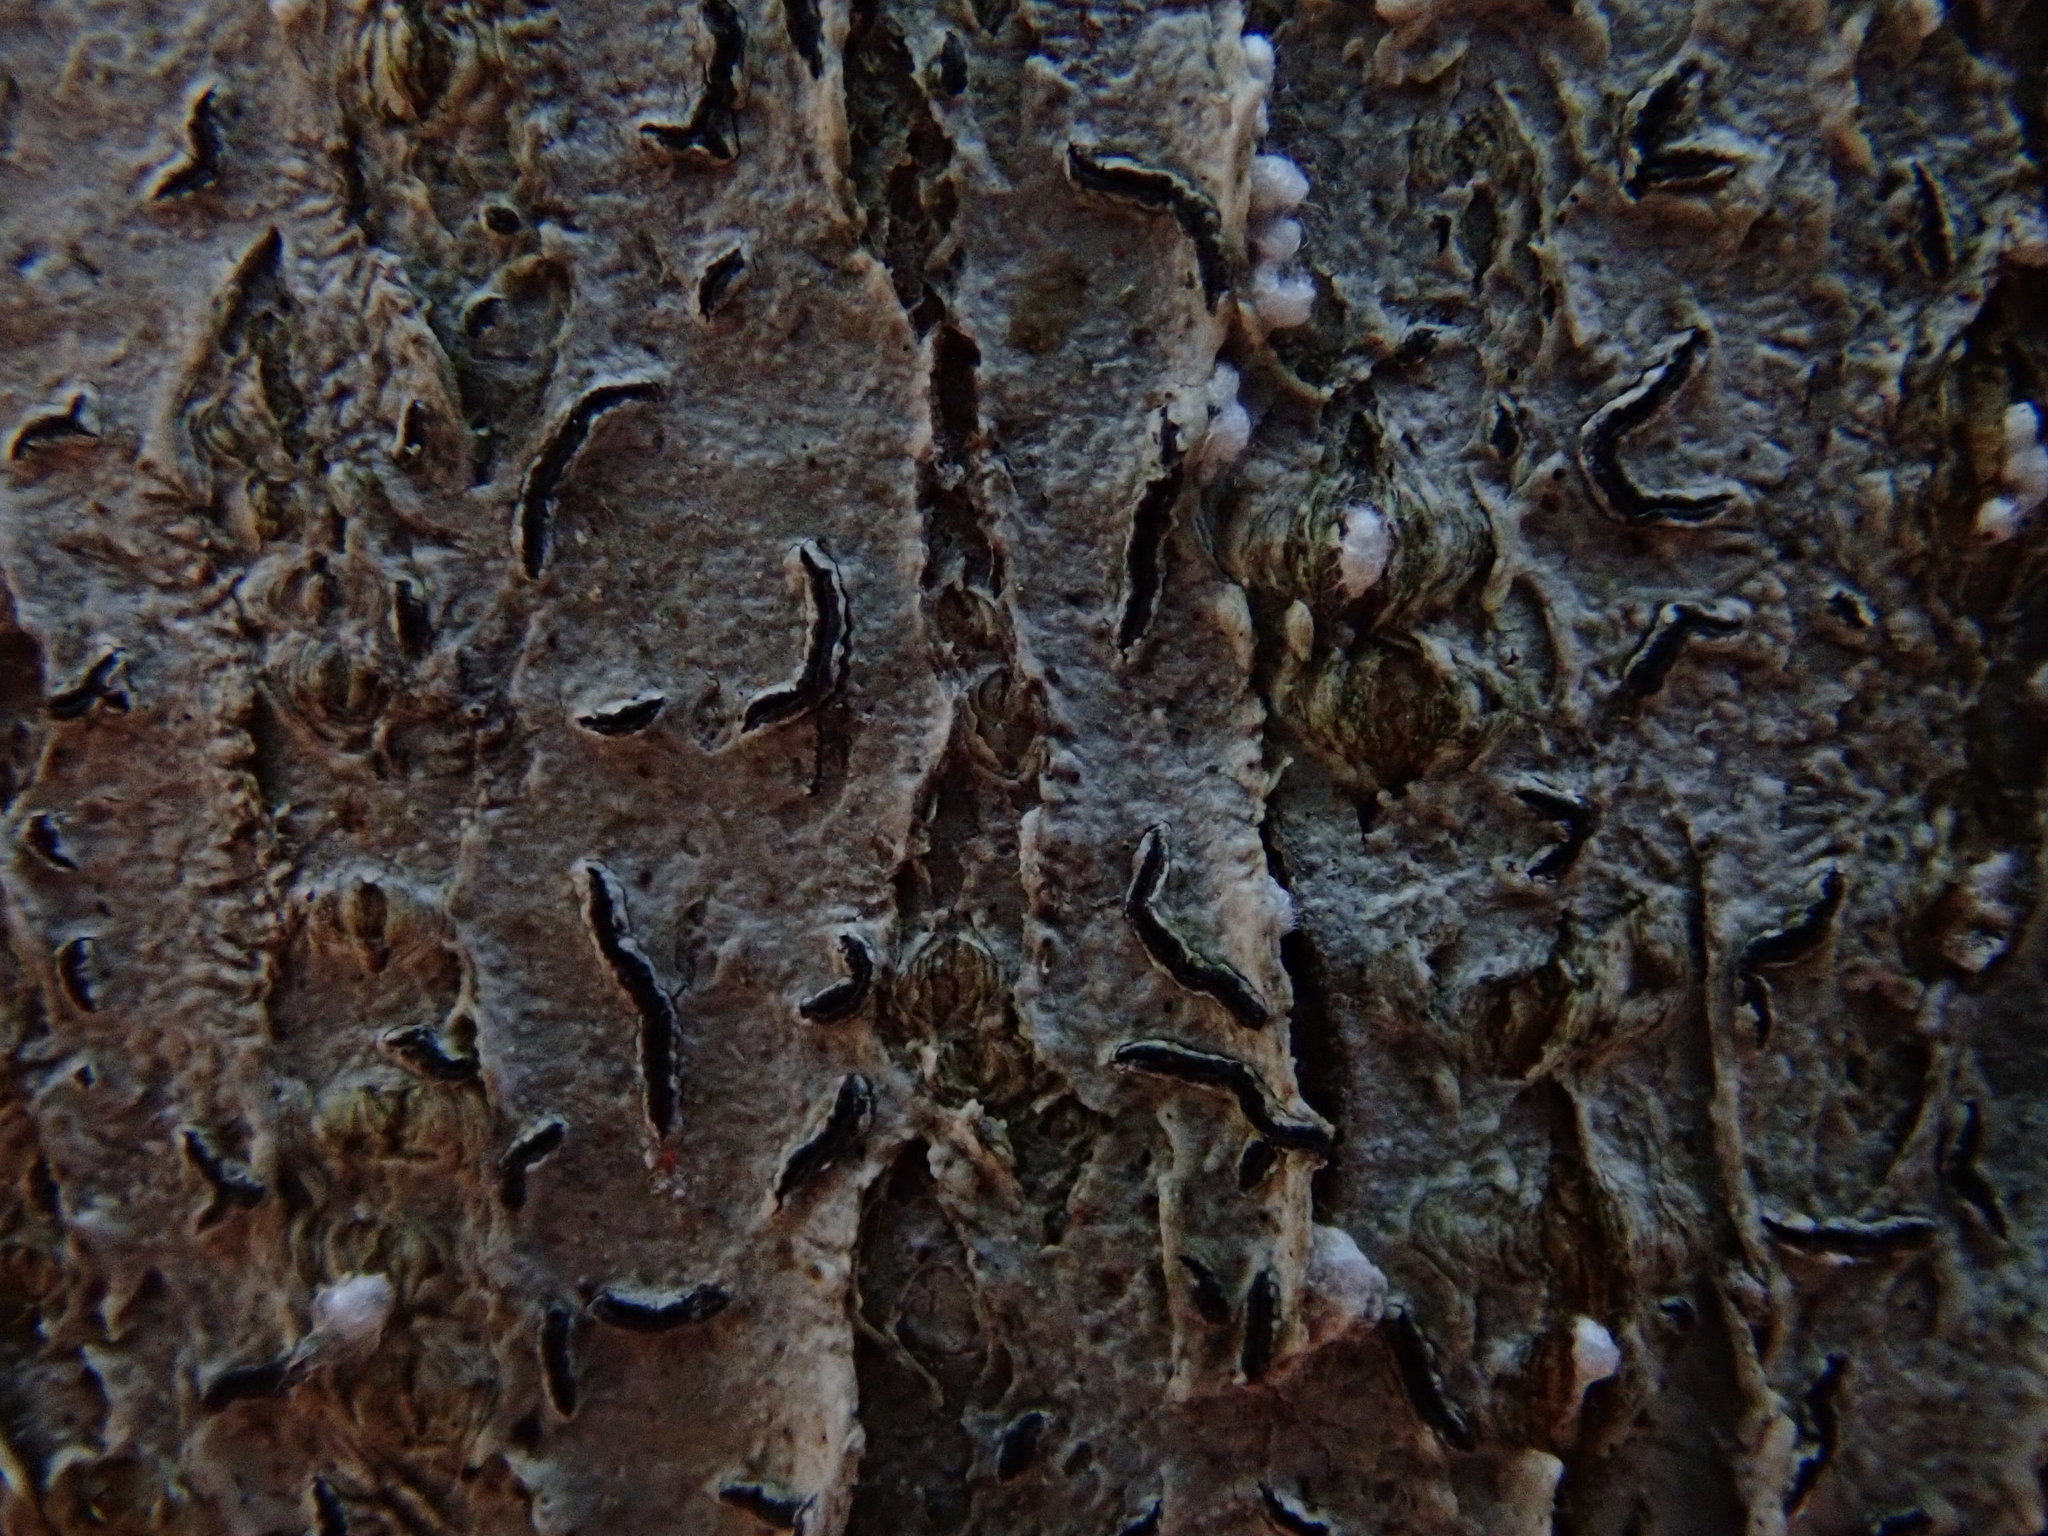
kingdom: Fungi
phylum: Ascomycota
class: Lecanoromycetes
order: Ostropales
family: Graphidaceae
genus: Graphis
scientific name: Graphis scripta
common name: Script lichen
